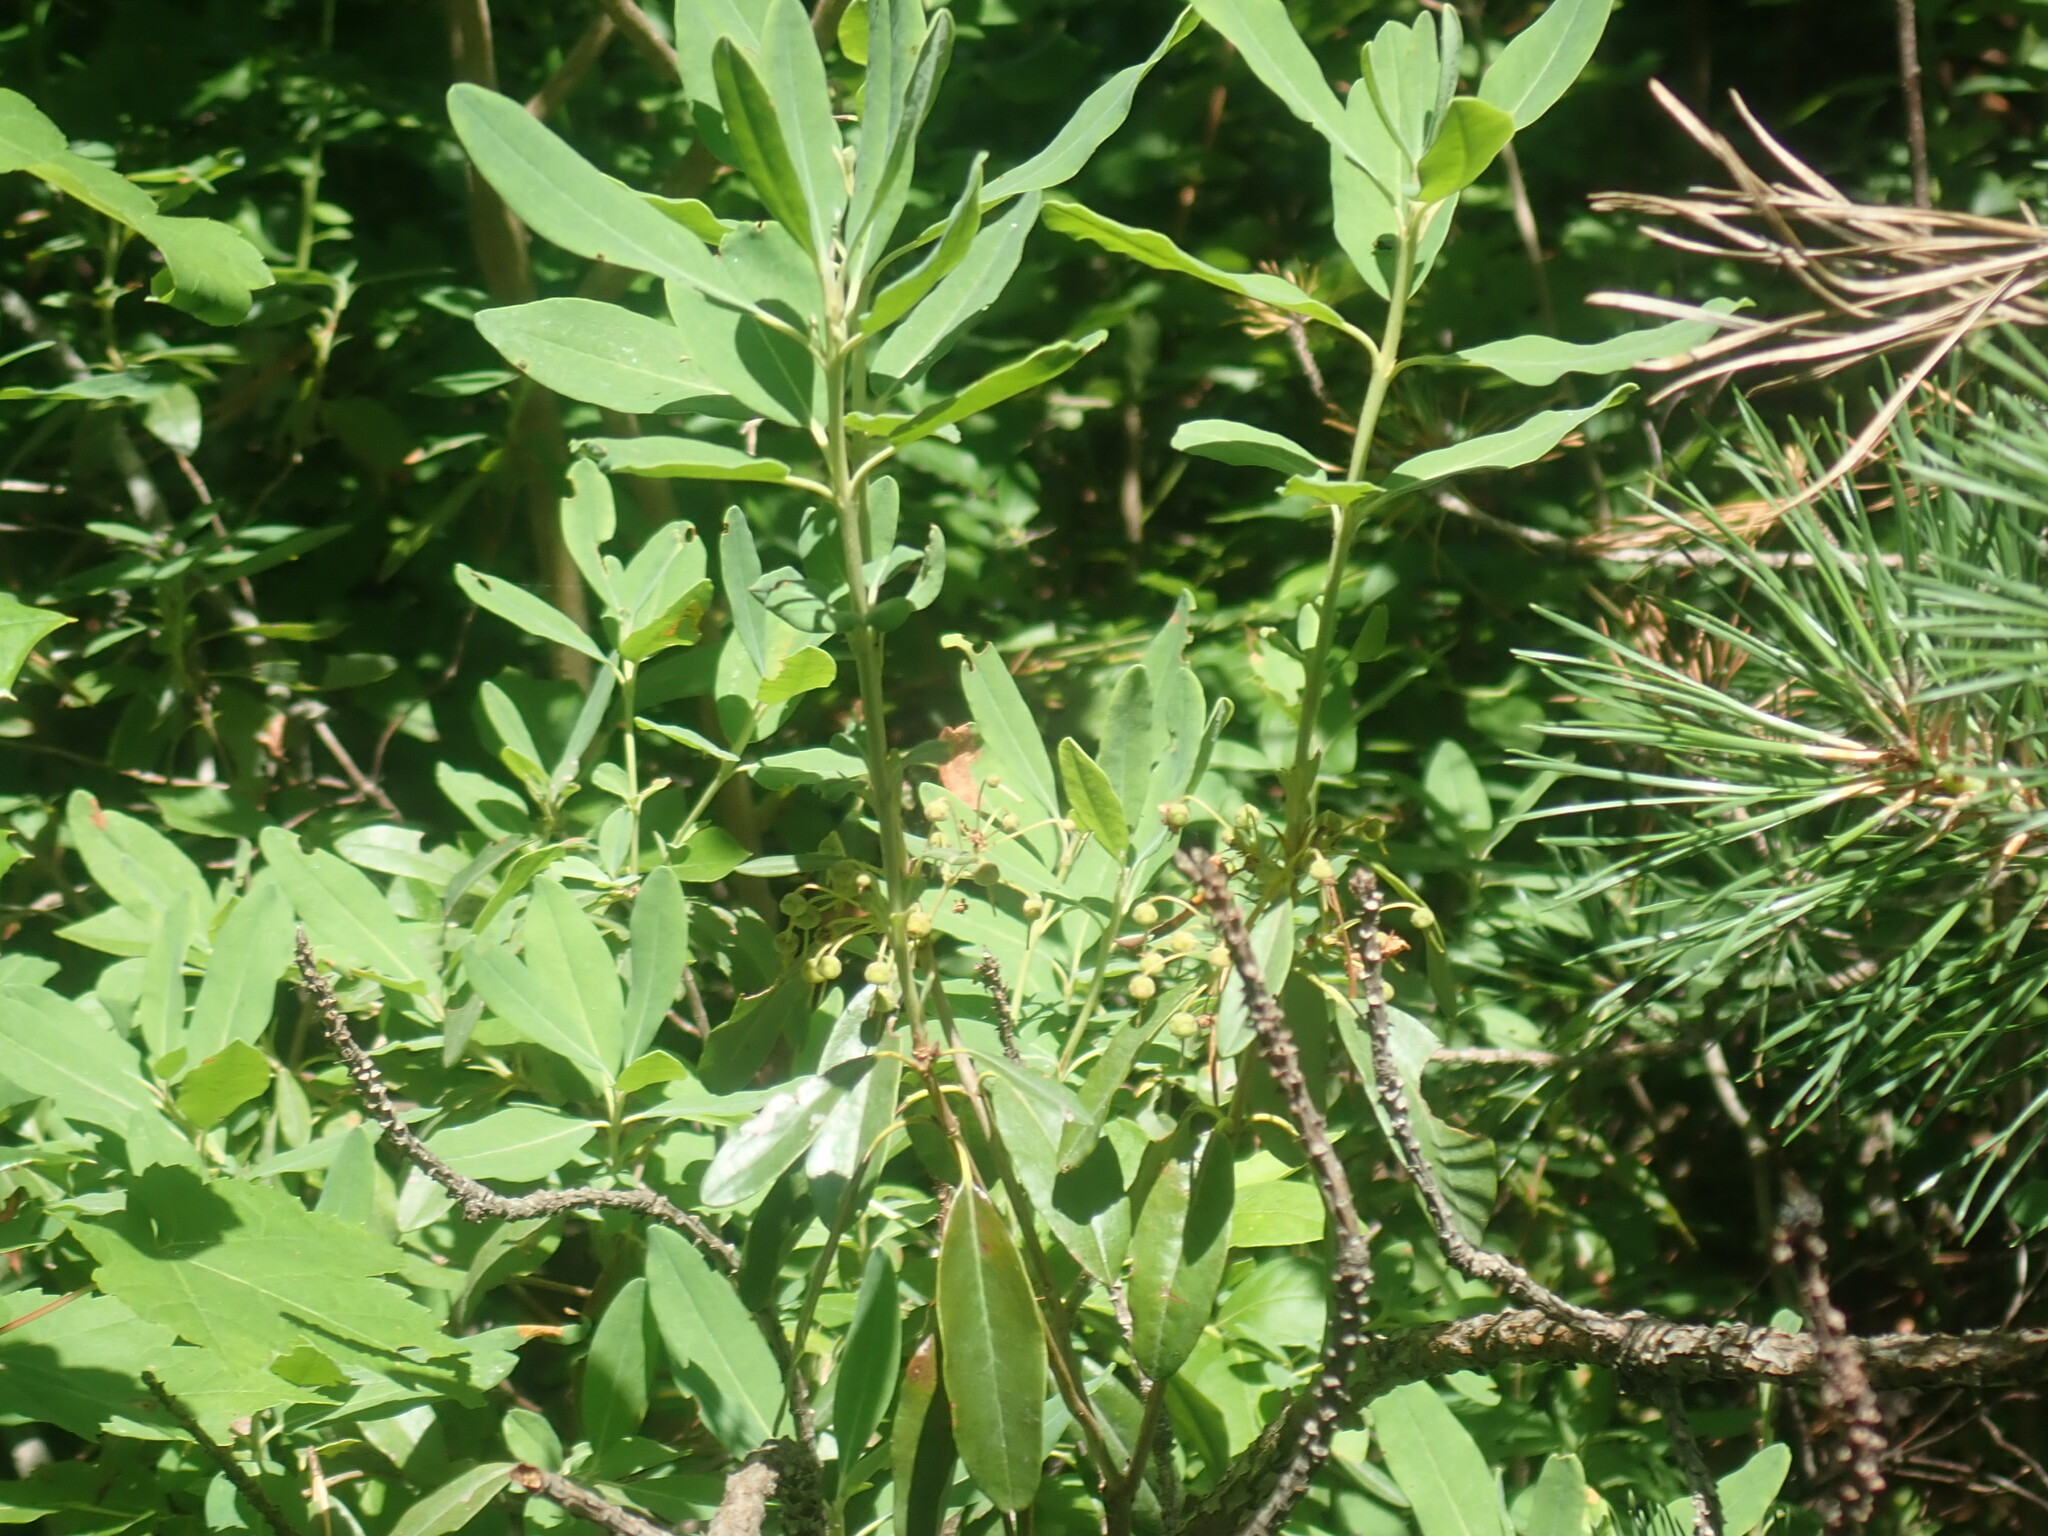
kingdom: Plantae
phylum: Tracheophyta
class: Magnoliopsida
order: Ericales
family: Ericaceae
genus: Kalmia
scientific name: Kalmia angustifolia
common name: Sheep-laurel
